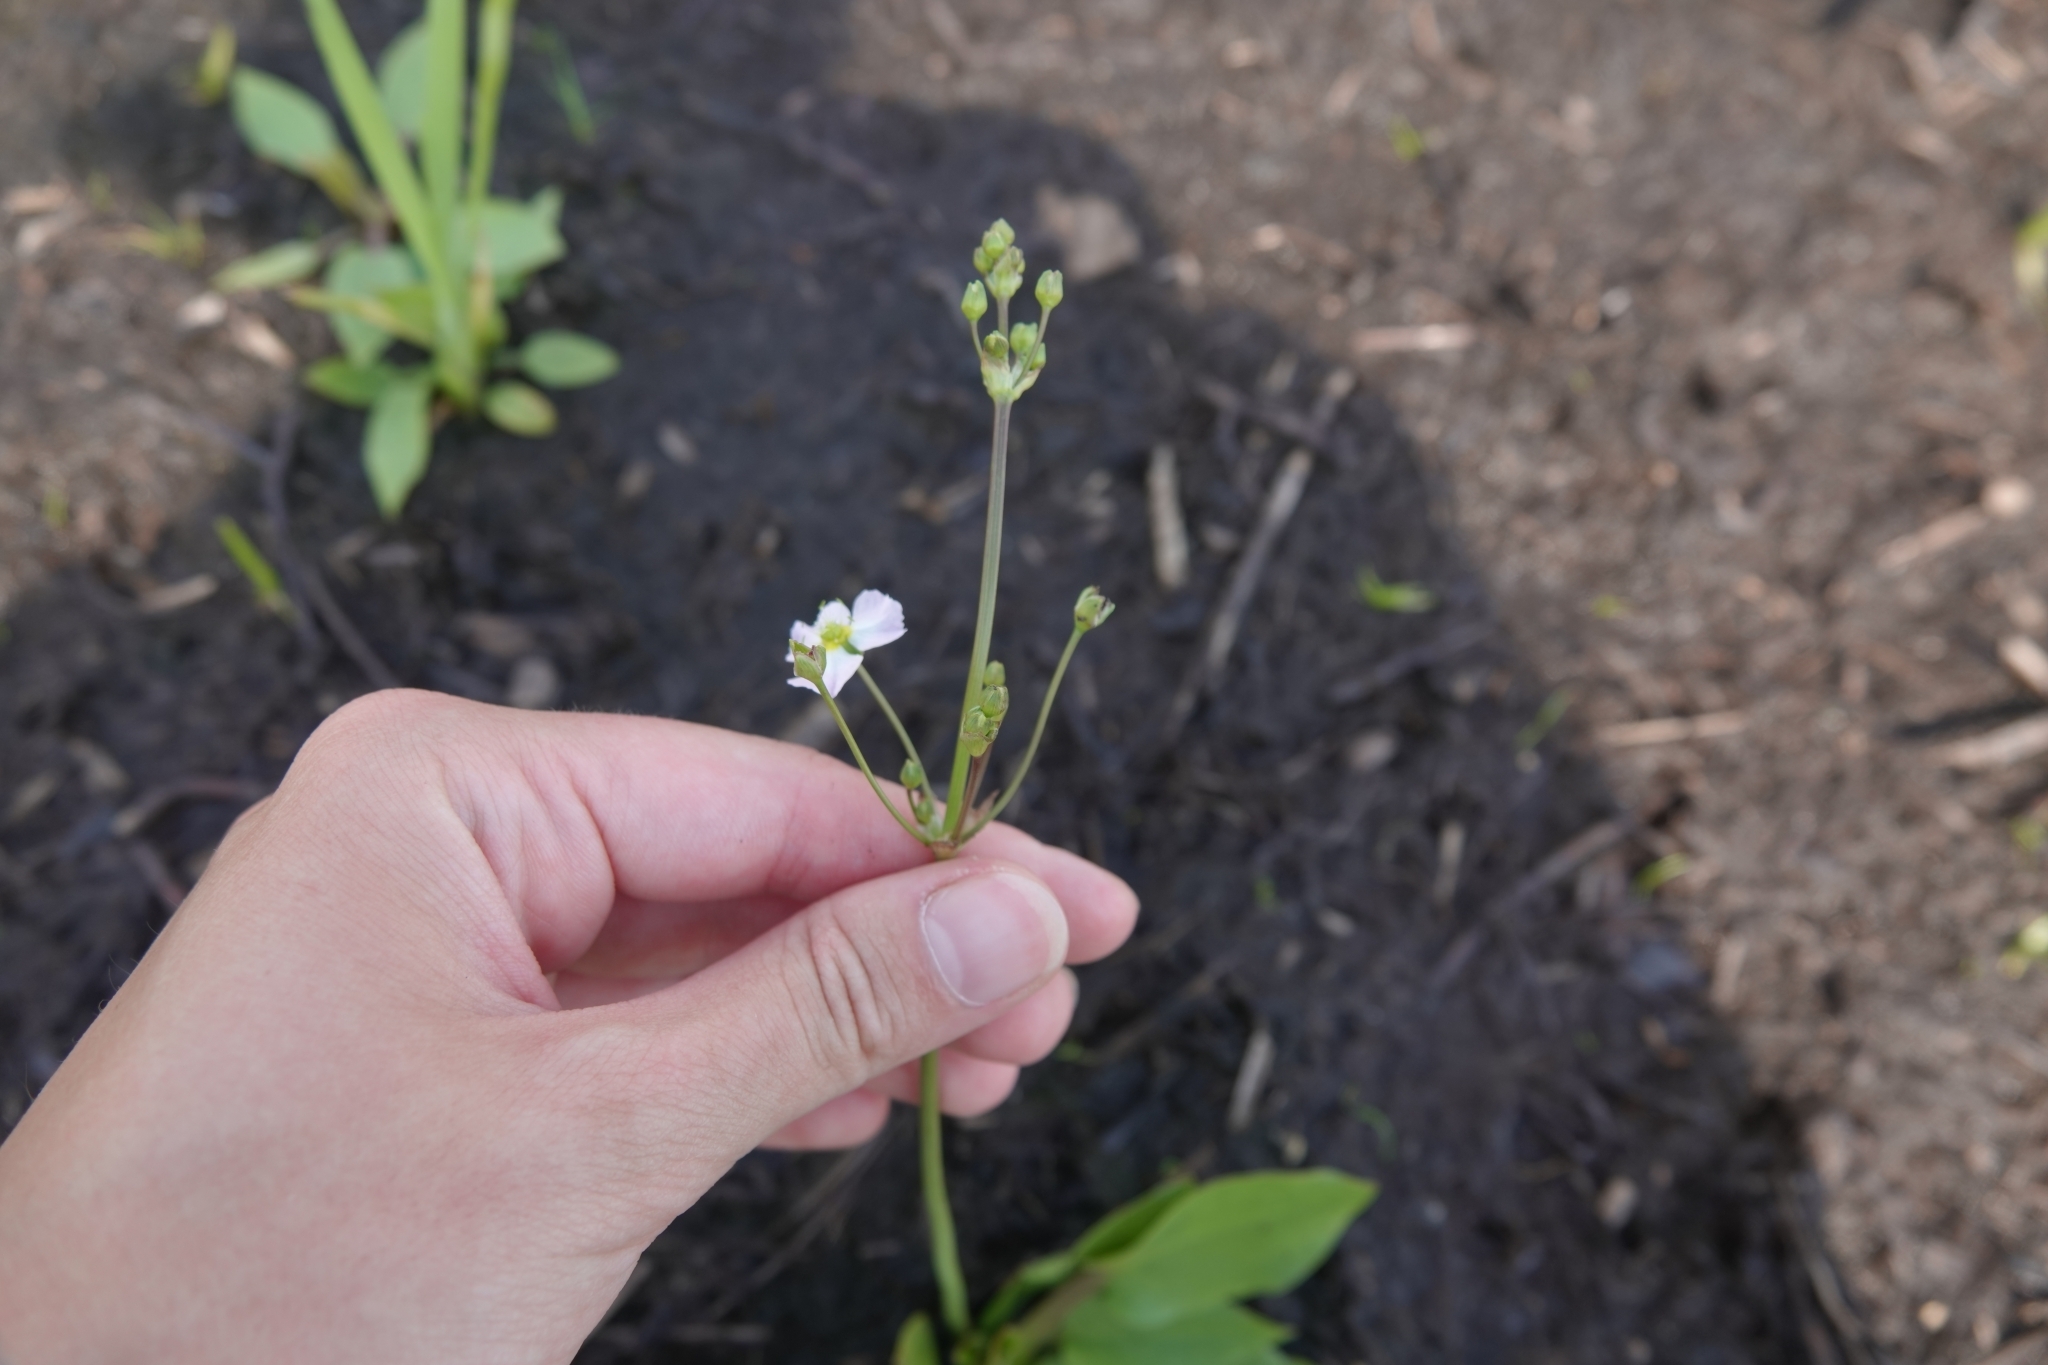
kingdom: Plantae
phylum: Tracheophyta
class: Liliopsida
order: Alismatales
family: Alismataceae
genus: Alisma
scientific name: Alisma plantago-aquatica
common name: Water-plantain
